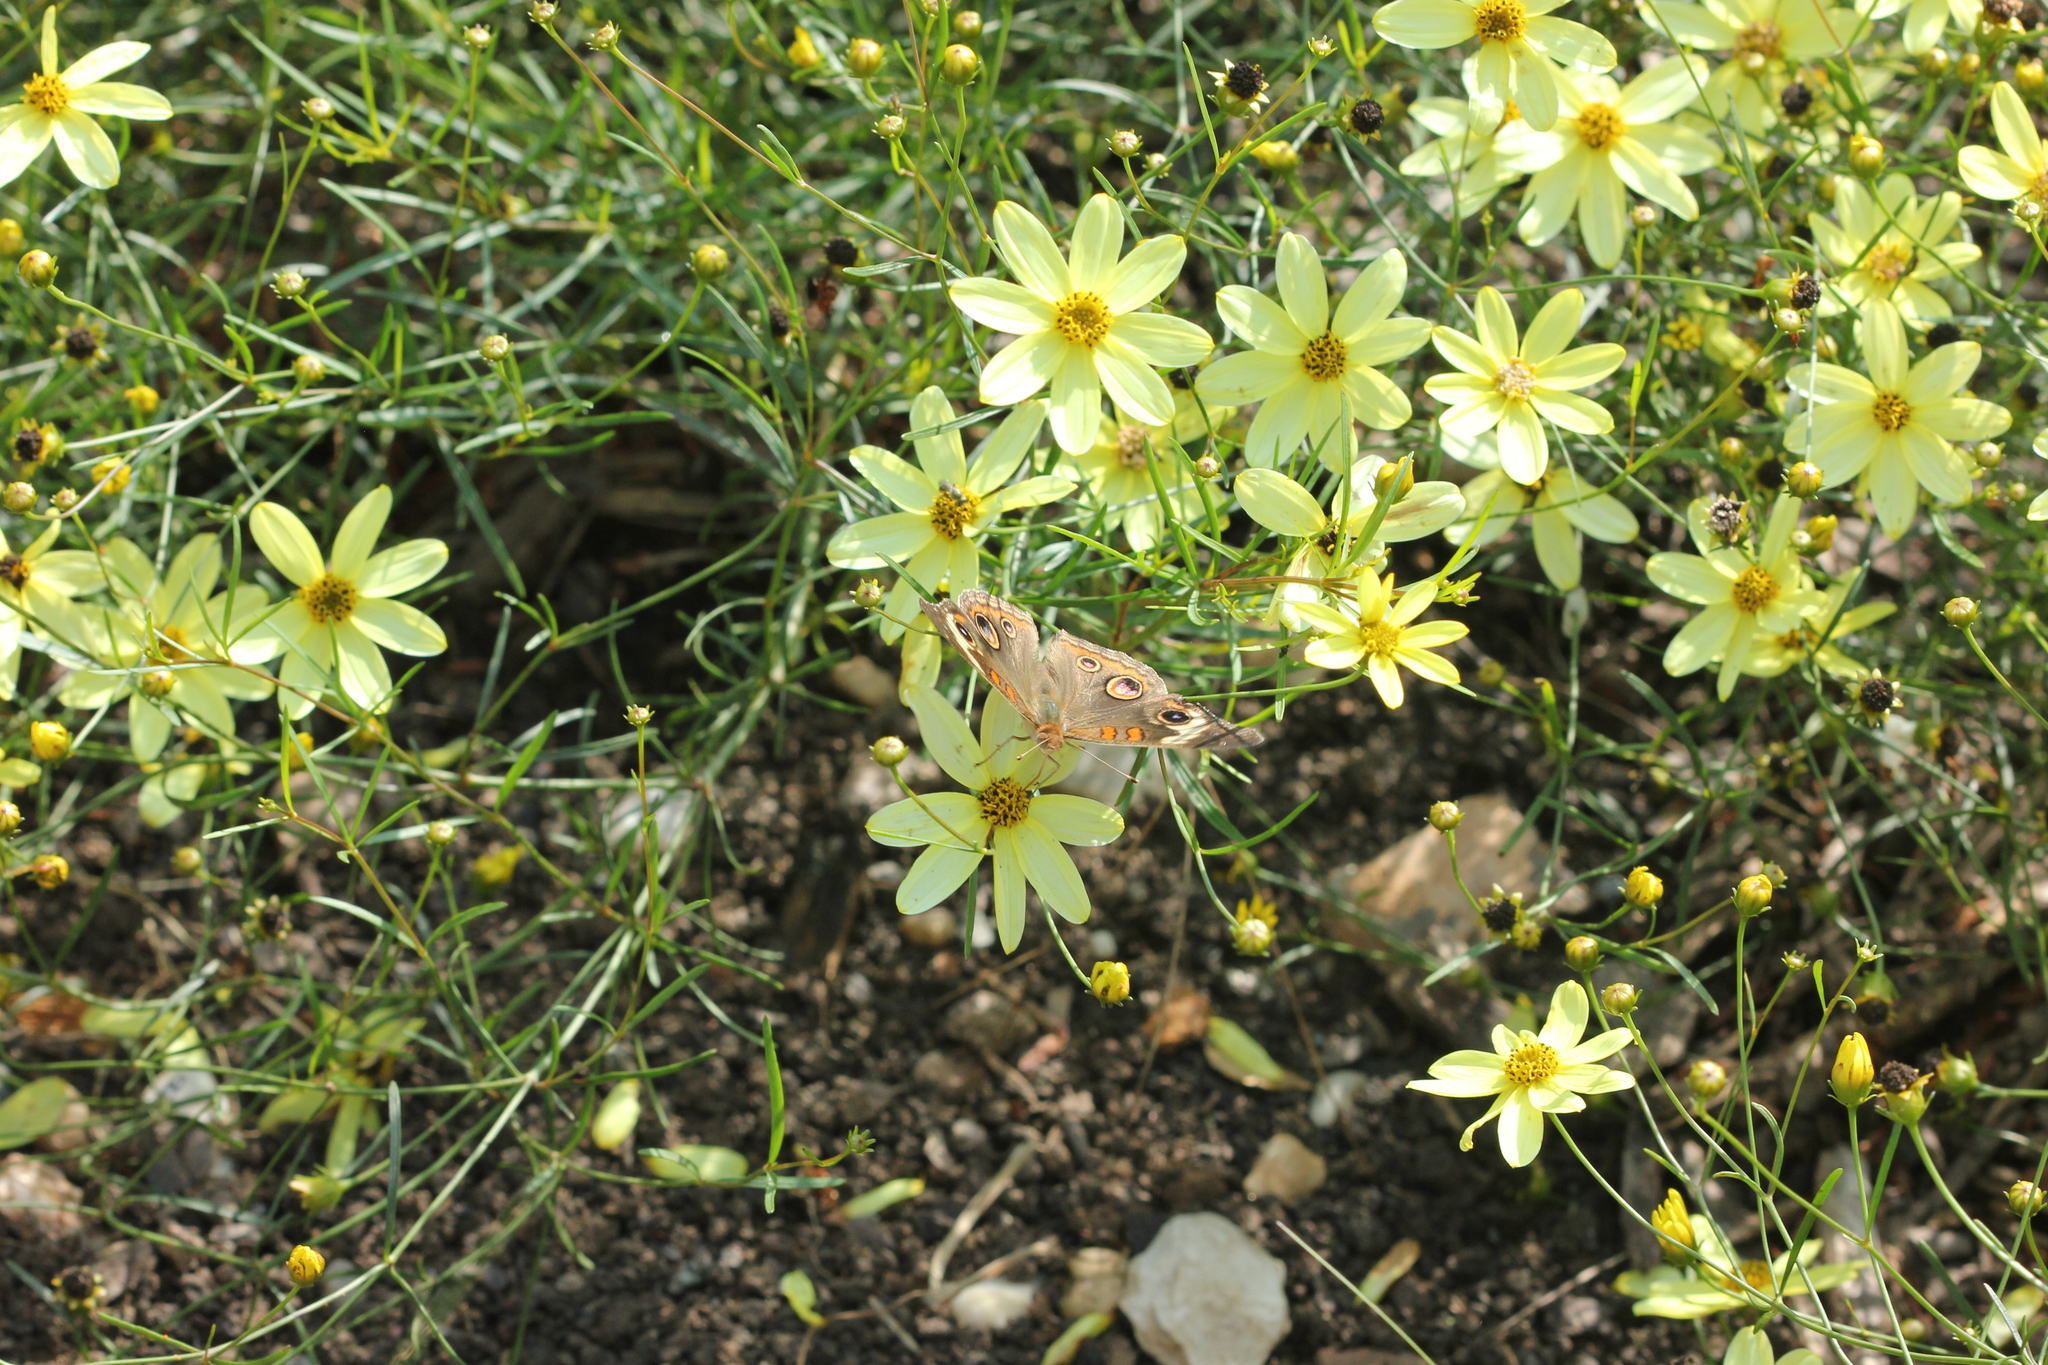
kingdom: Animalia
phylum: Arthropoda
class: Insecta
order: Lepidoptera
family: Nymphalidae
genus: Junonia
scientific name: Junonia coenia
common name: Common buckeye
